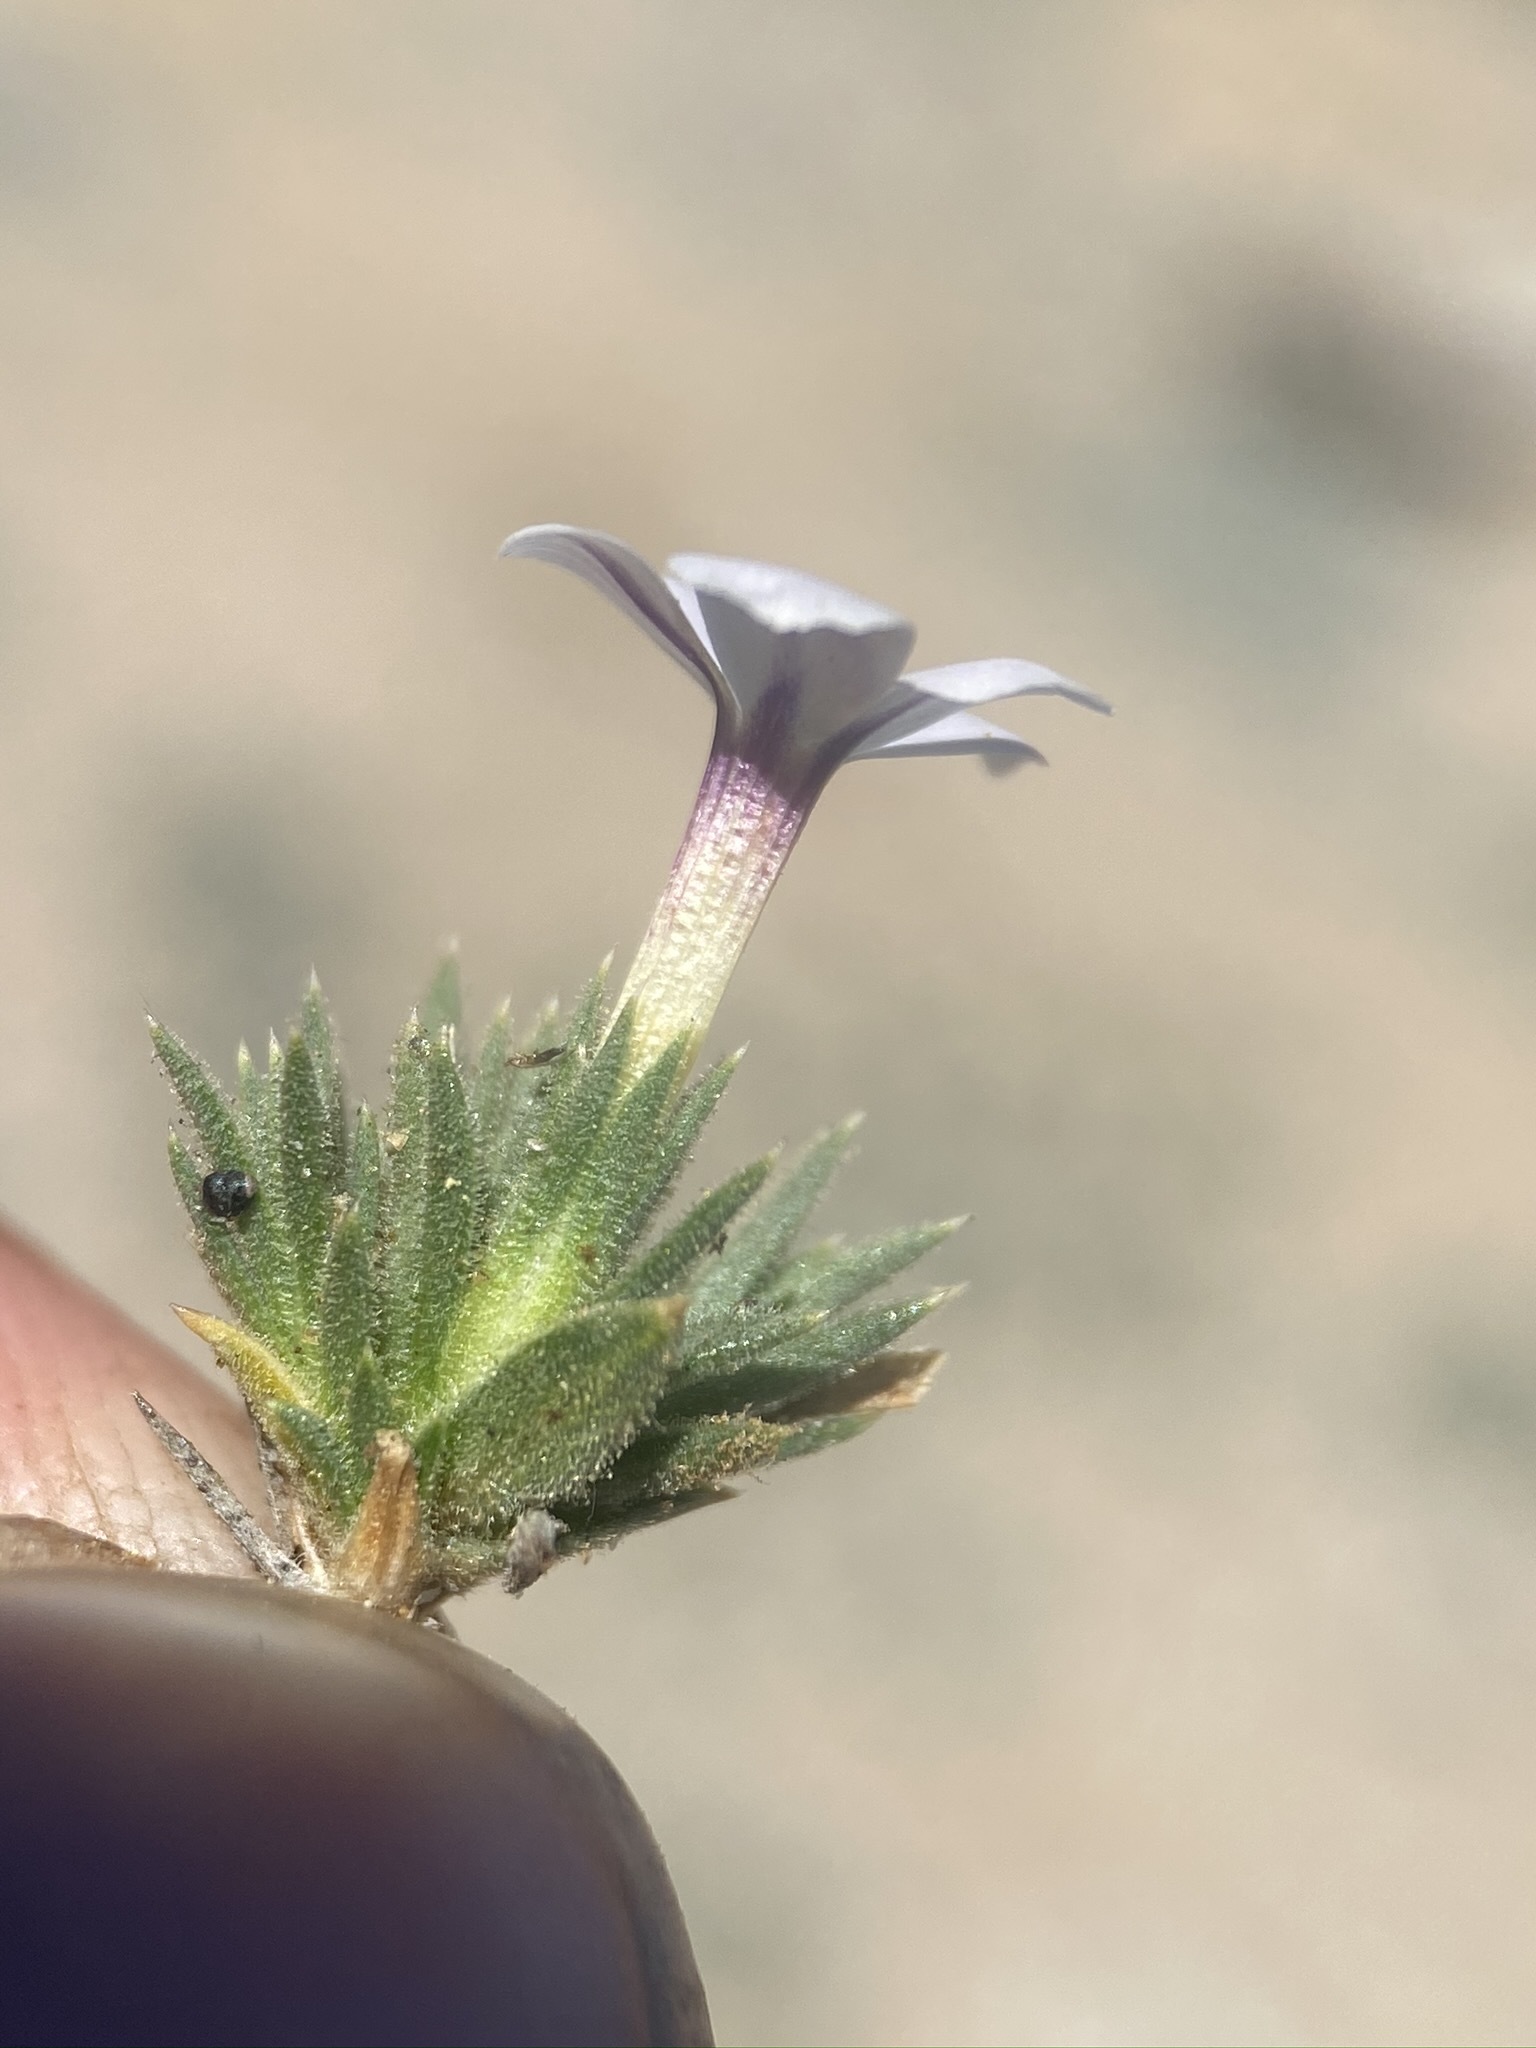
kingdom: Plantae
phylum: Tracheophyta
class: Magnoliopsida
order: Ericales
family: Polemoniaceae
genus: Phlox
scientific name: Phlox dispersa
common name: High sierra phlox
